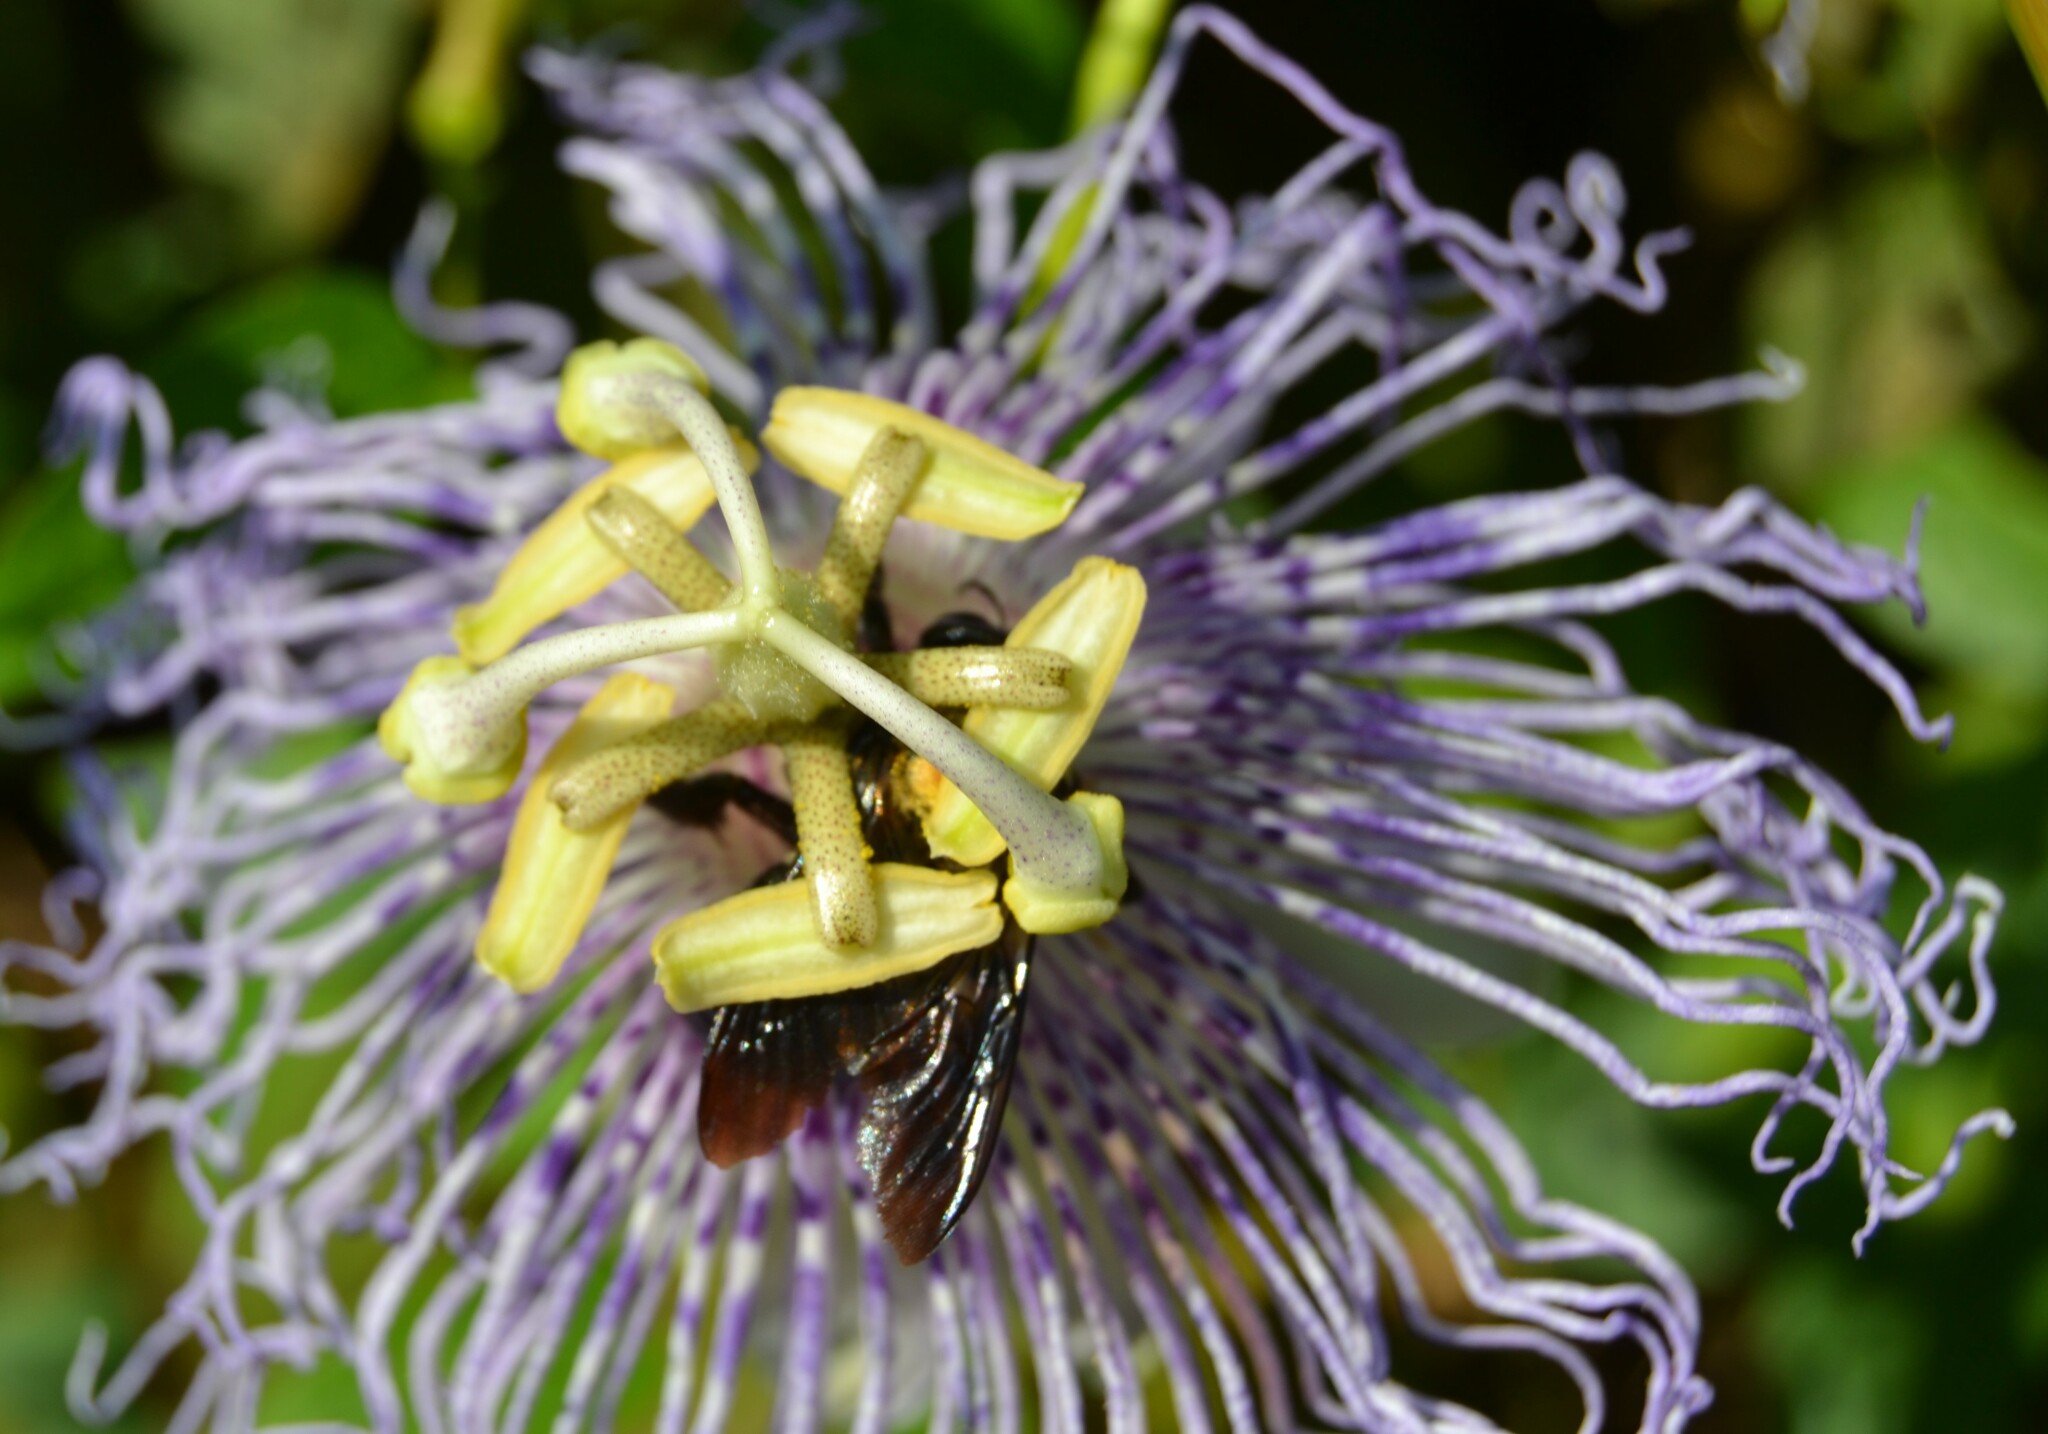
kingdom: Animalia
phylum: Arthropoda
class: Insecta
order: Hymenoptera
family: Apidae
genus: Xylocopa
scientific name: Xylocopa virginica
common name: Carpenter bee
